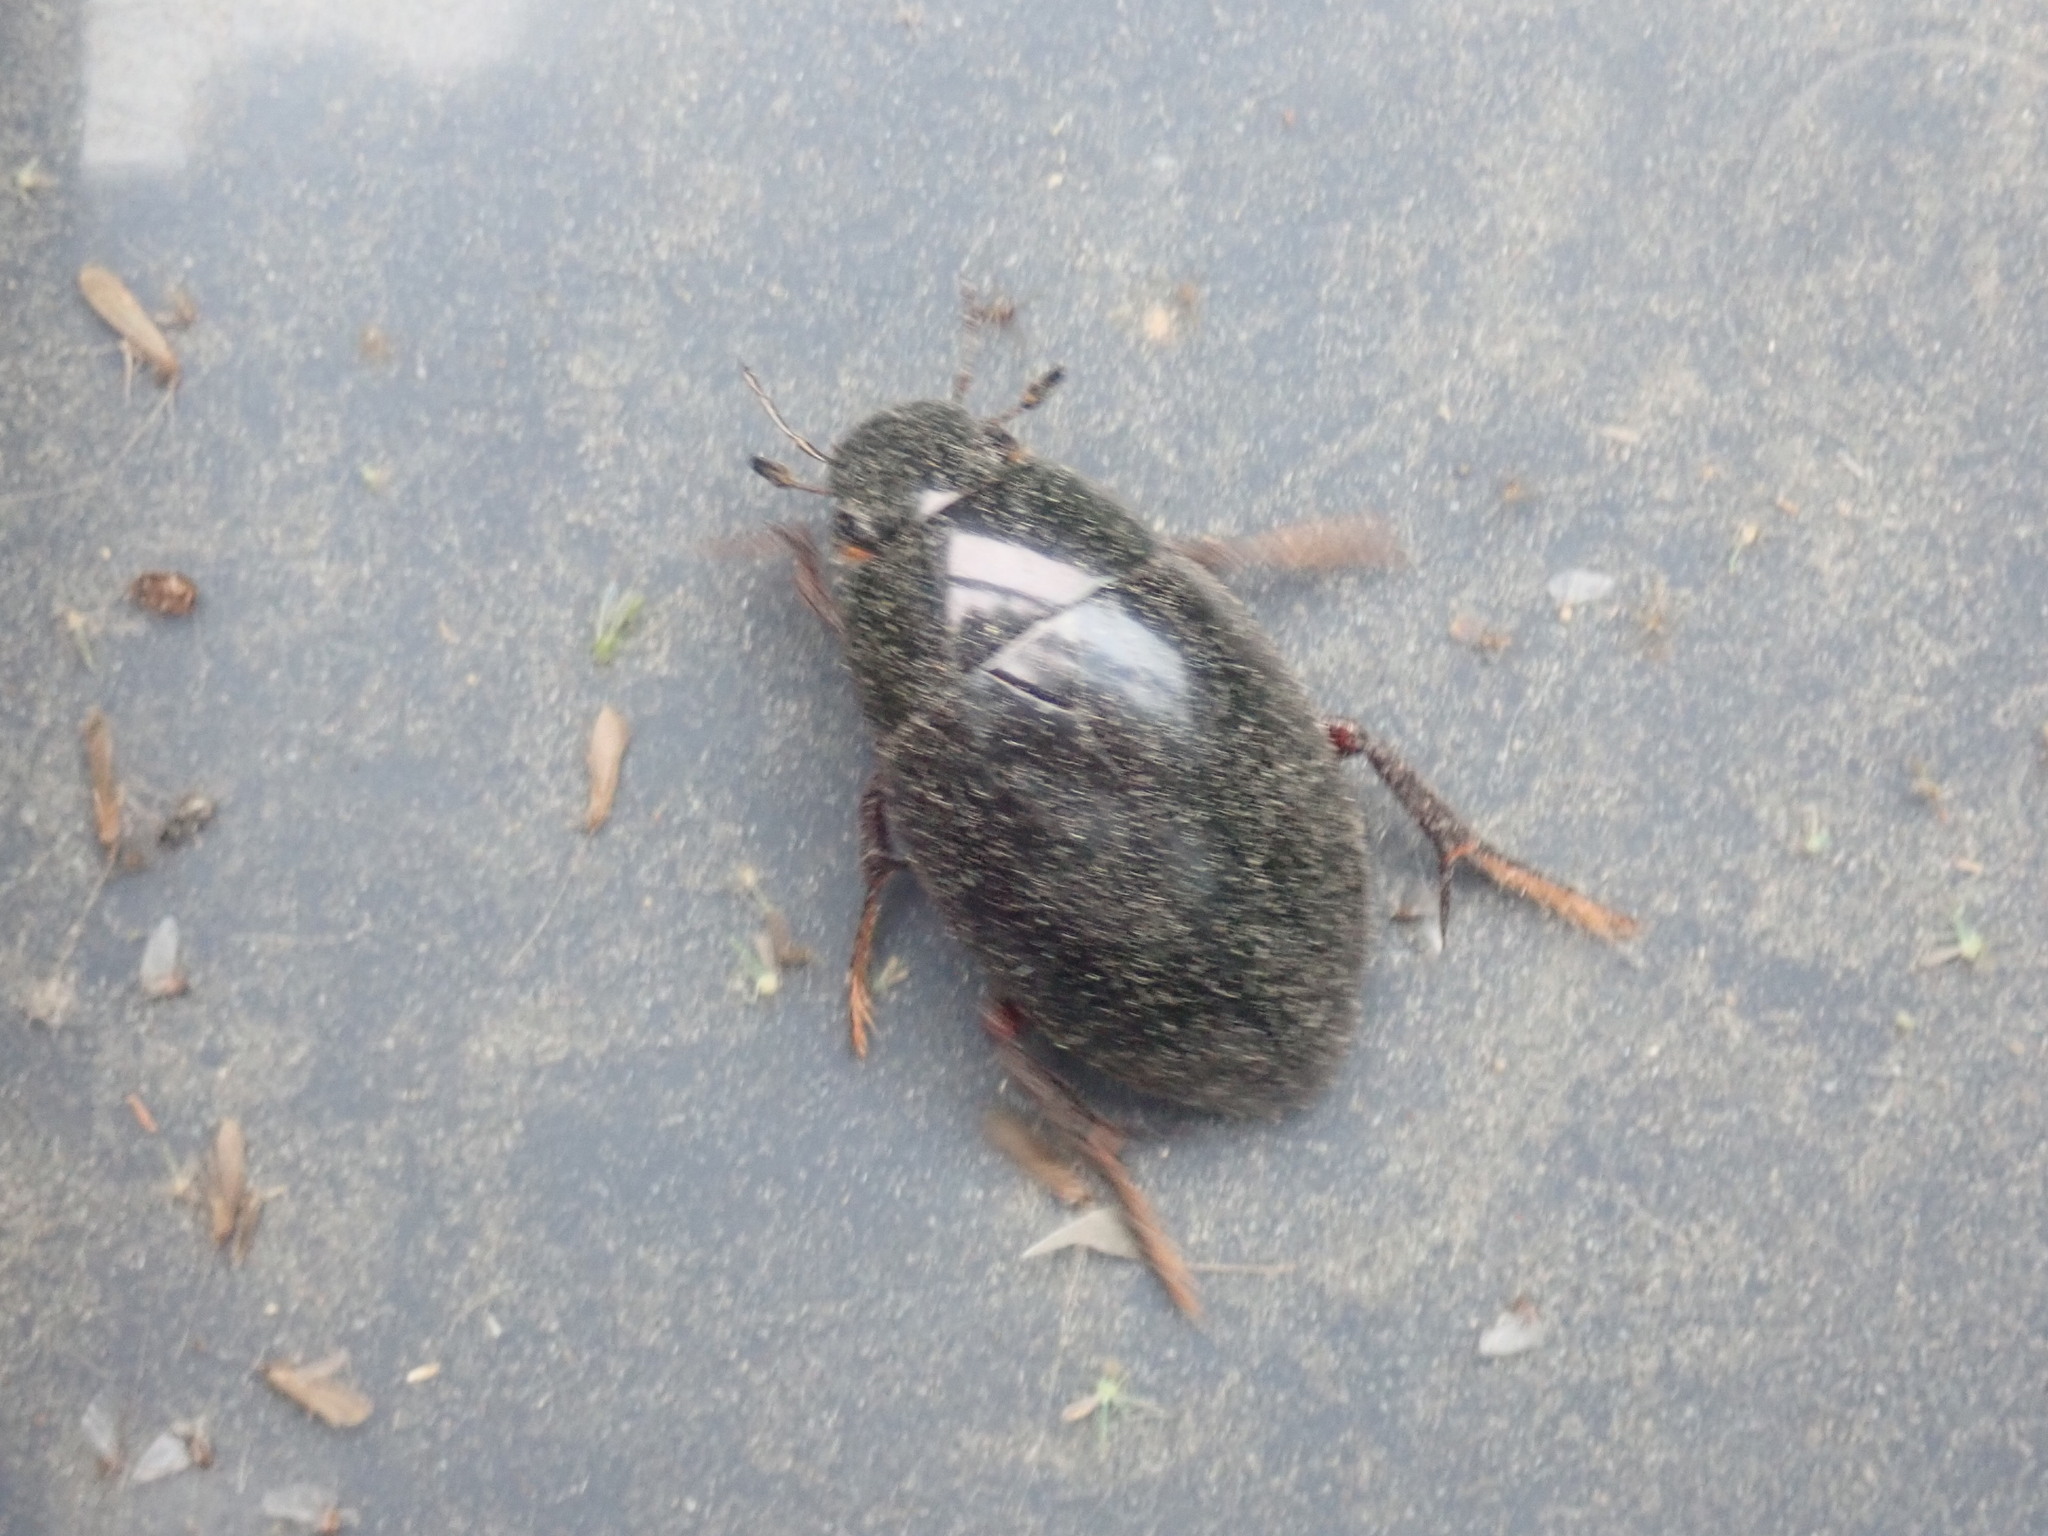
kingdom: Animalia
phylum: Arthropoda
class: Insecta
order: Coleoptera
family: Hydrophilidae
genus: Tropisternus
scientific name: Tropisternus
